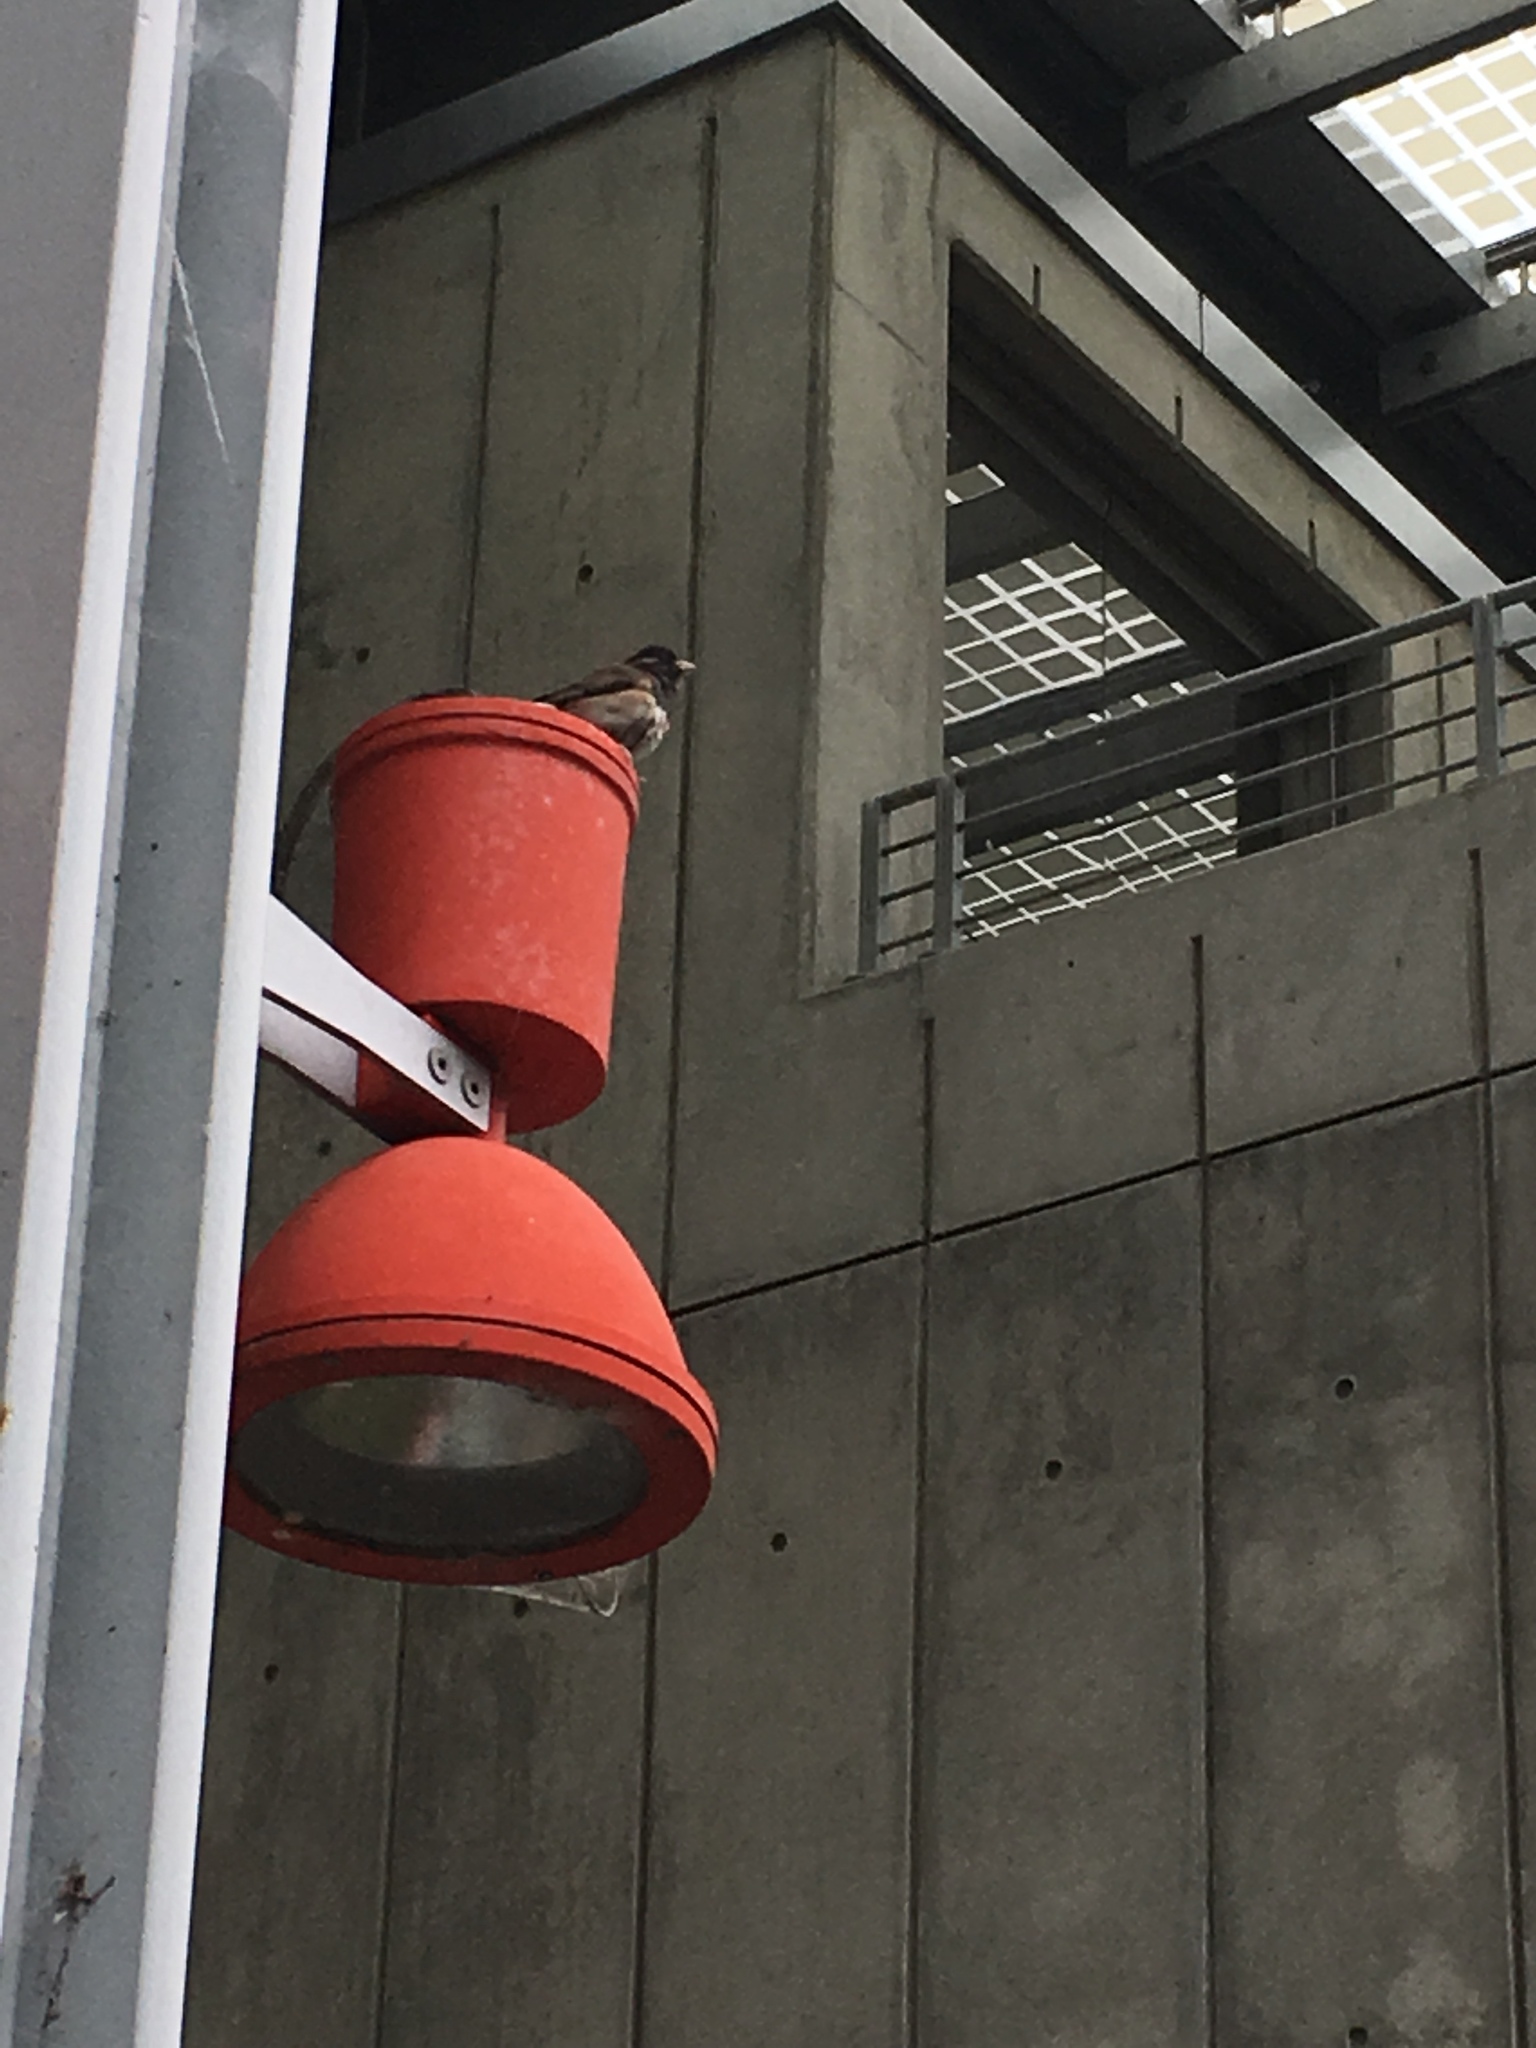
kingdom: Animalia
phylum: Chordata
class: Aves
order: Passeriformes
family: Passerellidae
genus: Junco
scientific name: Junco hyemalis
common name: Dark-eyed junco
